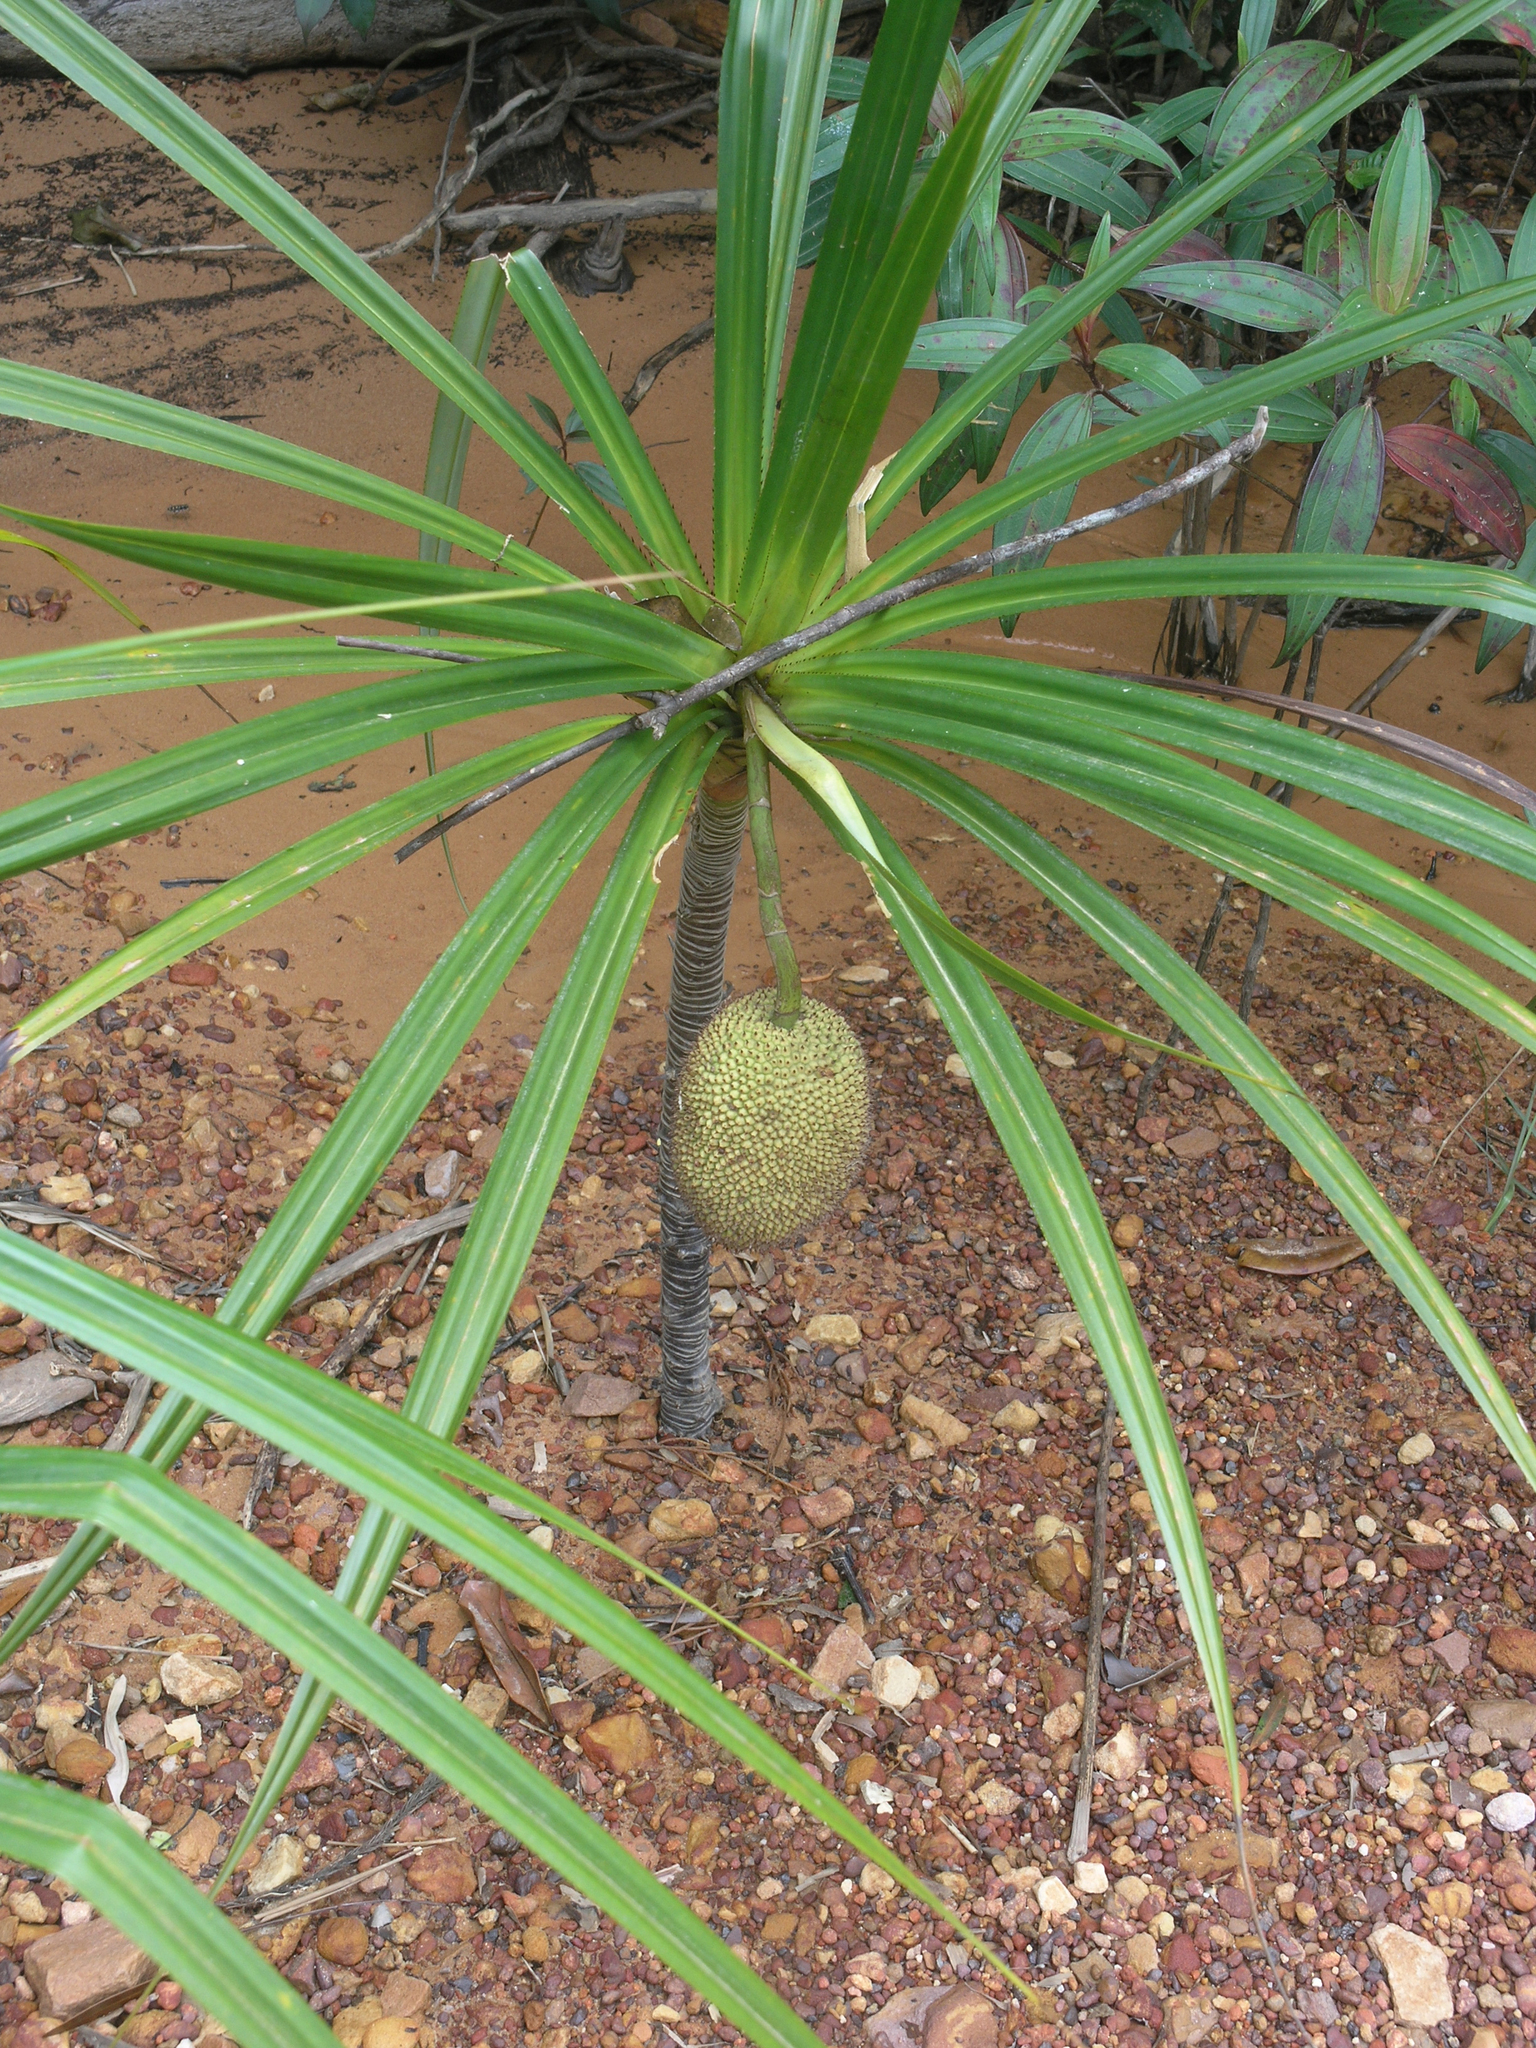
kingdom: Plantae
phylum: Tracheophyta
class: Liliopsida
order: Pandanales
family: Pandanaceae
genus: Pandanus
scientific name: Pandanus capusii
